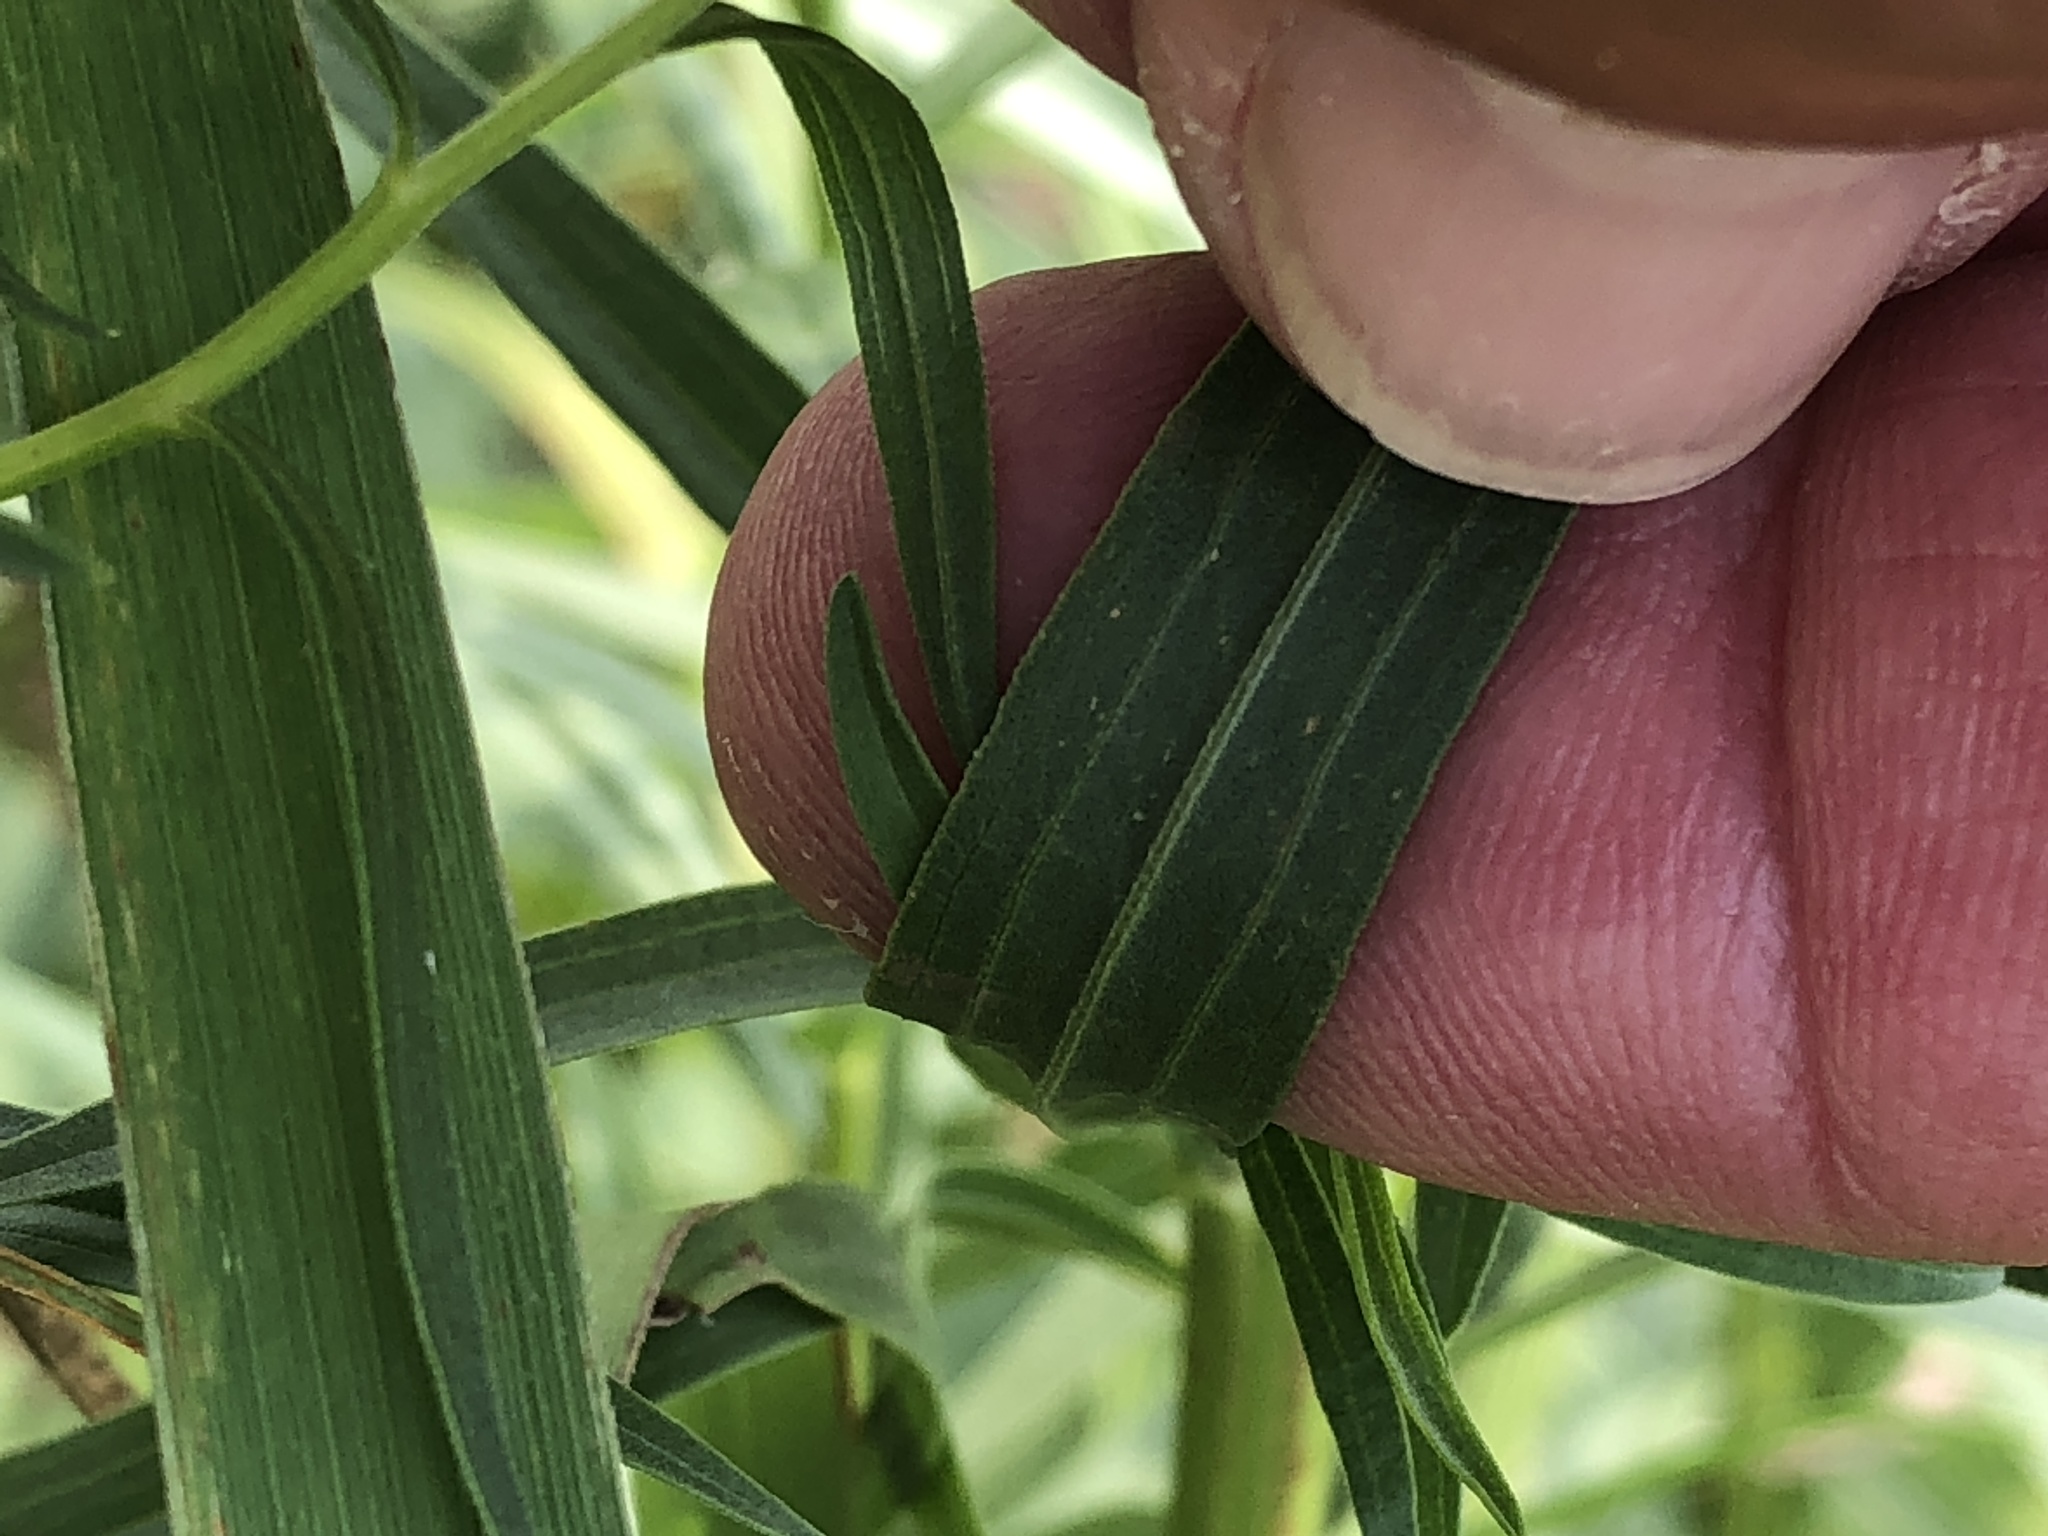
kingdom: Plantae
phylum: Tracheophyta
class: Magnoliopsida
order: Asterales
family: Asteraceae
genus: Euthamia
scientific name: Euthamia graminifolia
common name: Common goldentop
